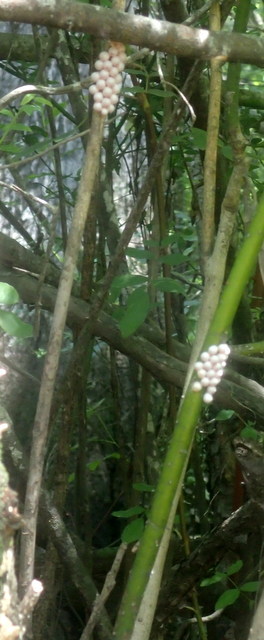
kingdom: Animalia
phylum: Mollusca
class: Gastropoda
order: Architaenioglossa
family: Ampullariidae
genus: Pomacea
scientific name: Pomacea paludosa
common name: Florida applesnail
